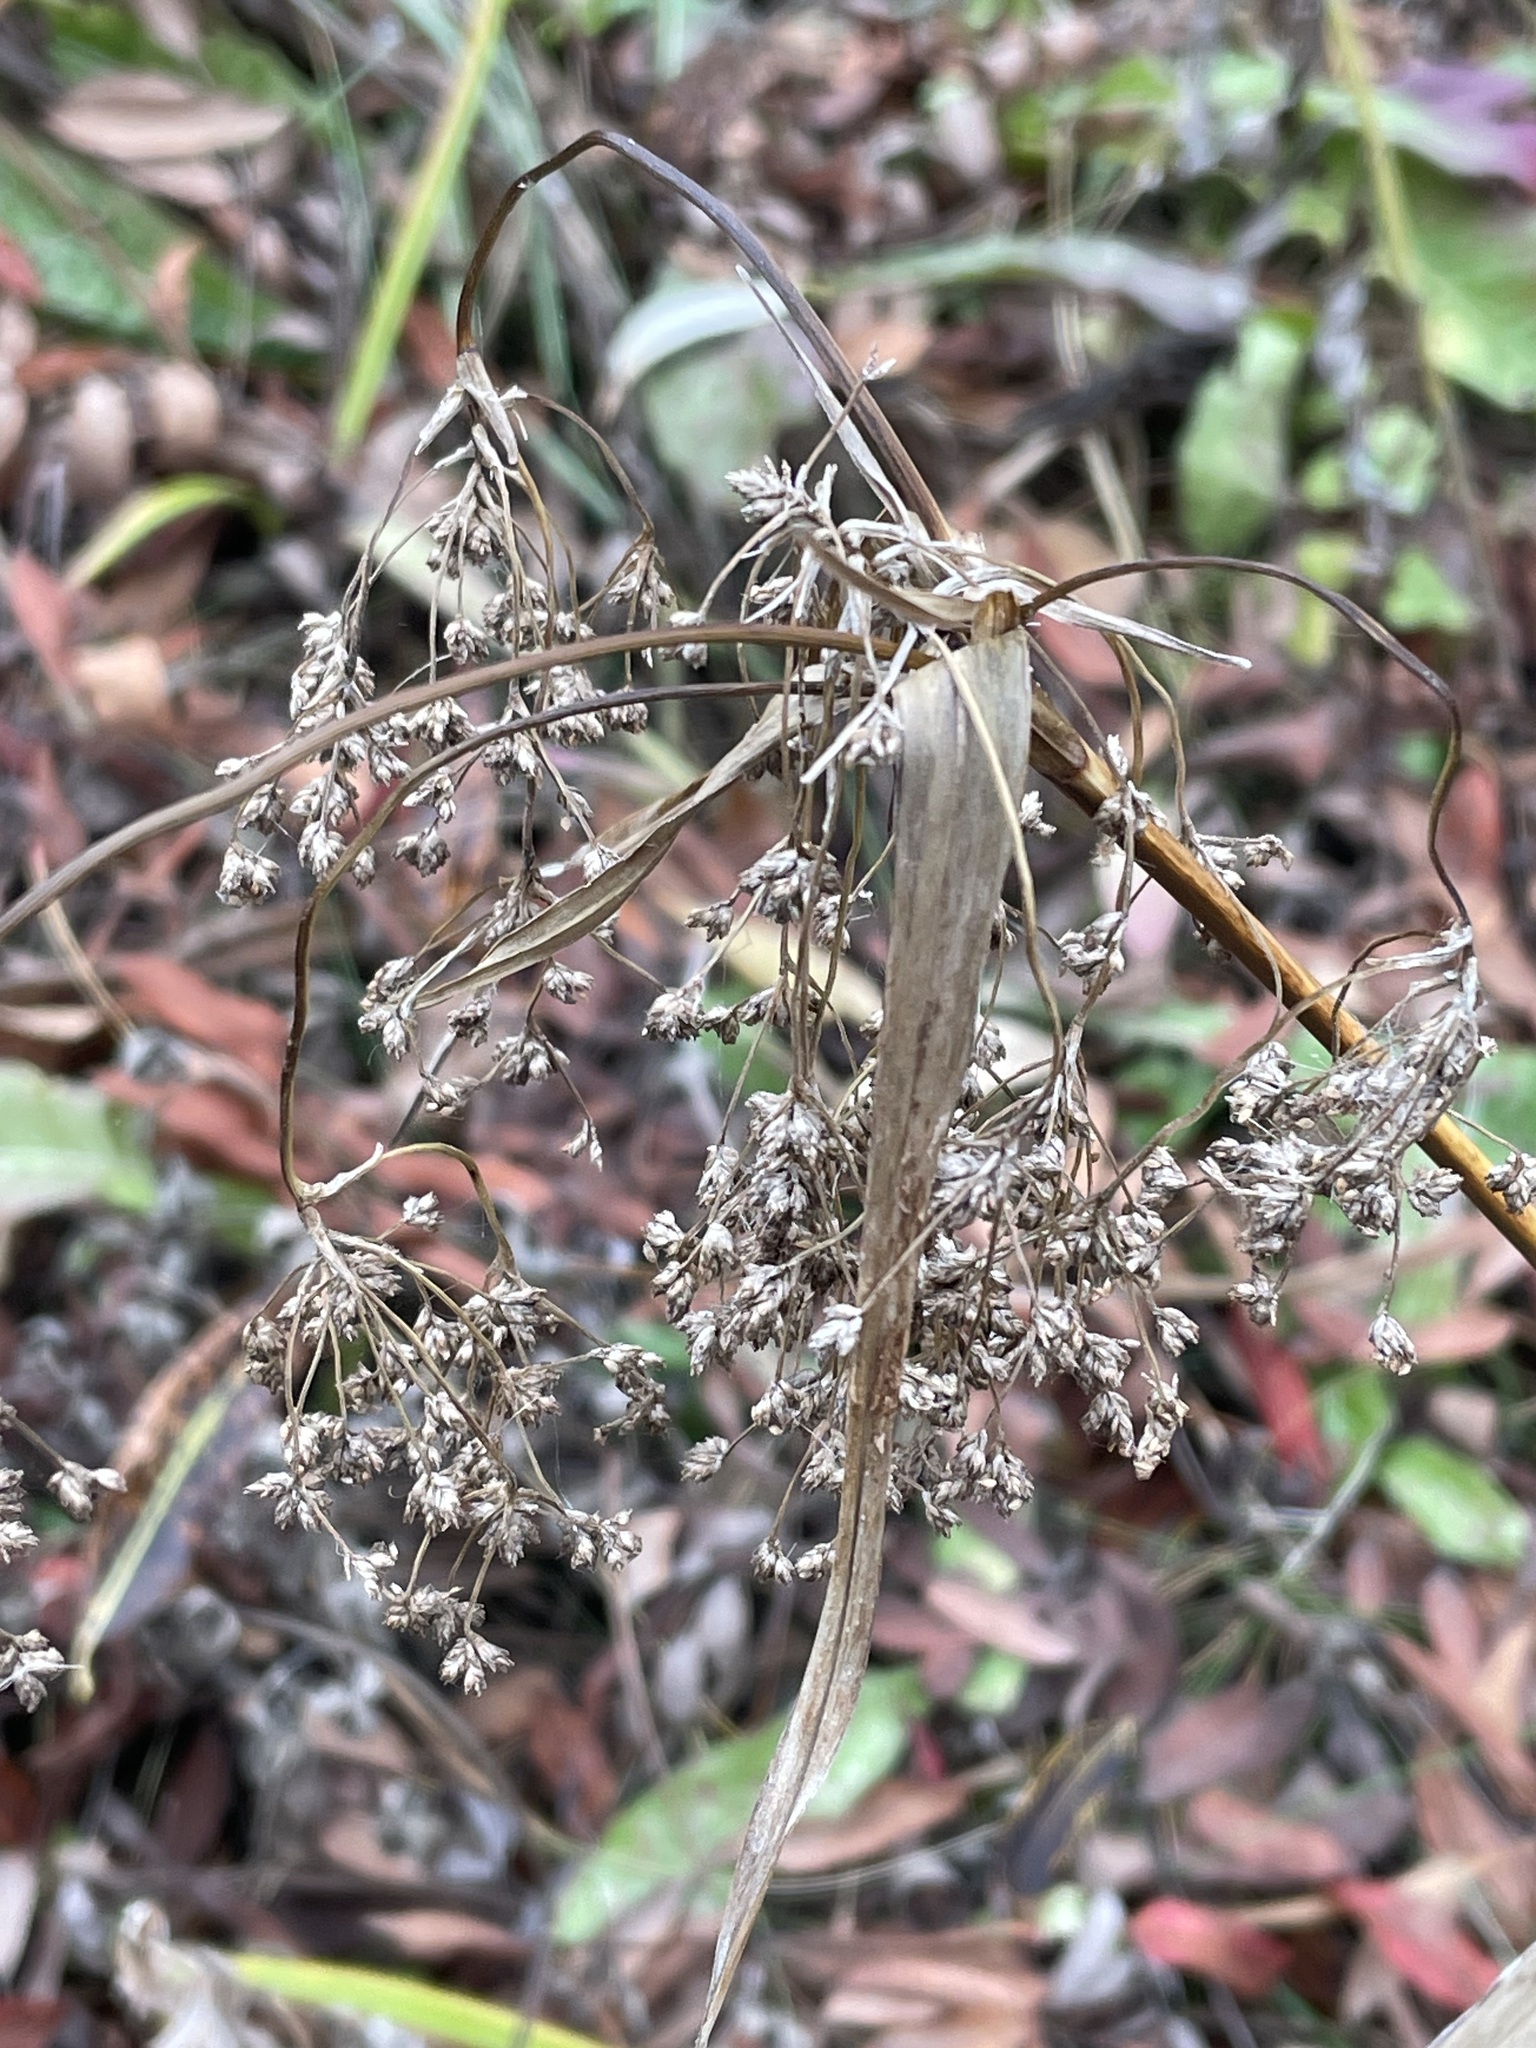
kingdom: Plantae
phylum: Tracheophyta
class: Liliopsida
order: Poales
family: Cyperaceae
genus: Scirpus
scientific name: Scirpus sylvaticus
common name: Wood club-rush
